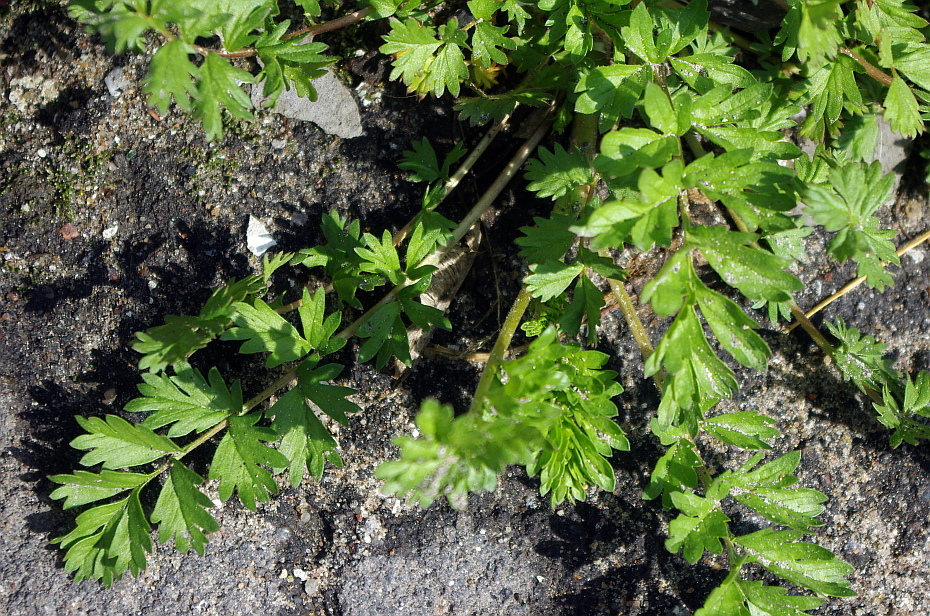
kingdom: Plantae
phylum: Tracheophyta
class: Magnoliopsida
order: Rosales
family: Rosaceae
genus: Potentilla
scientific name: Potentilla supina
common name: Prostrate cinquefoil
